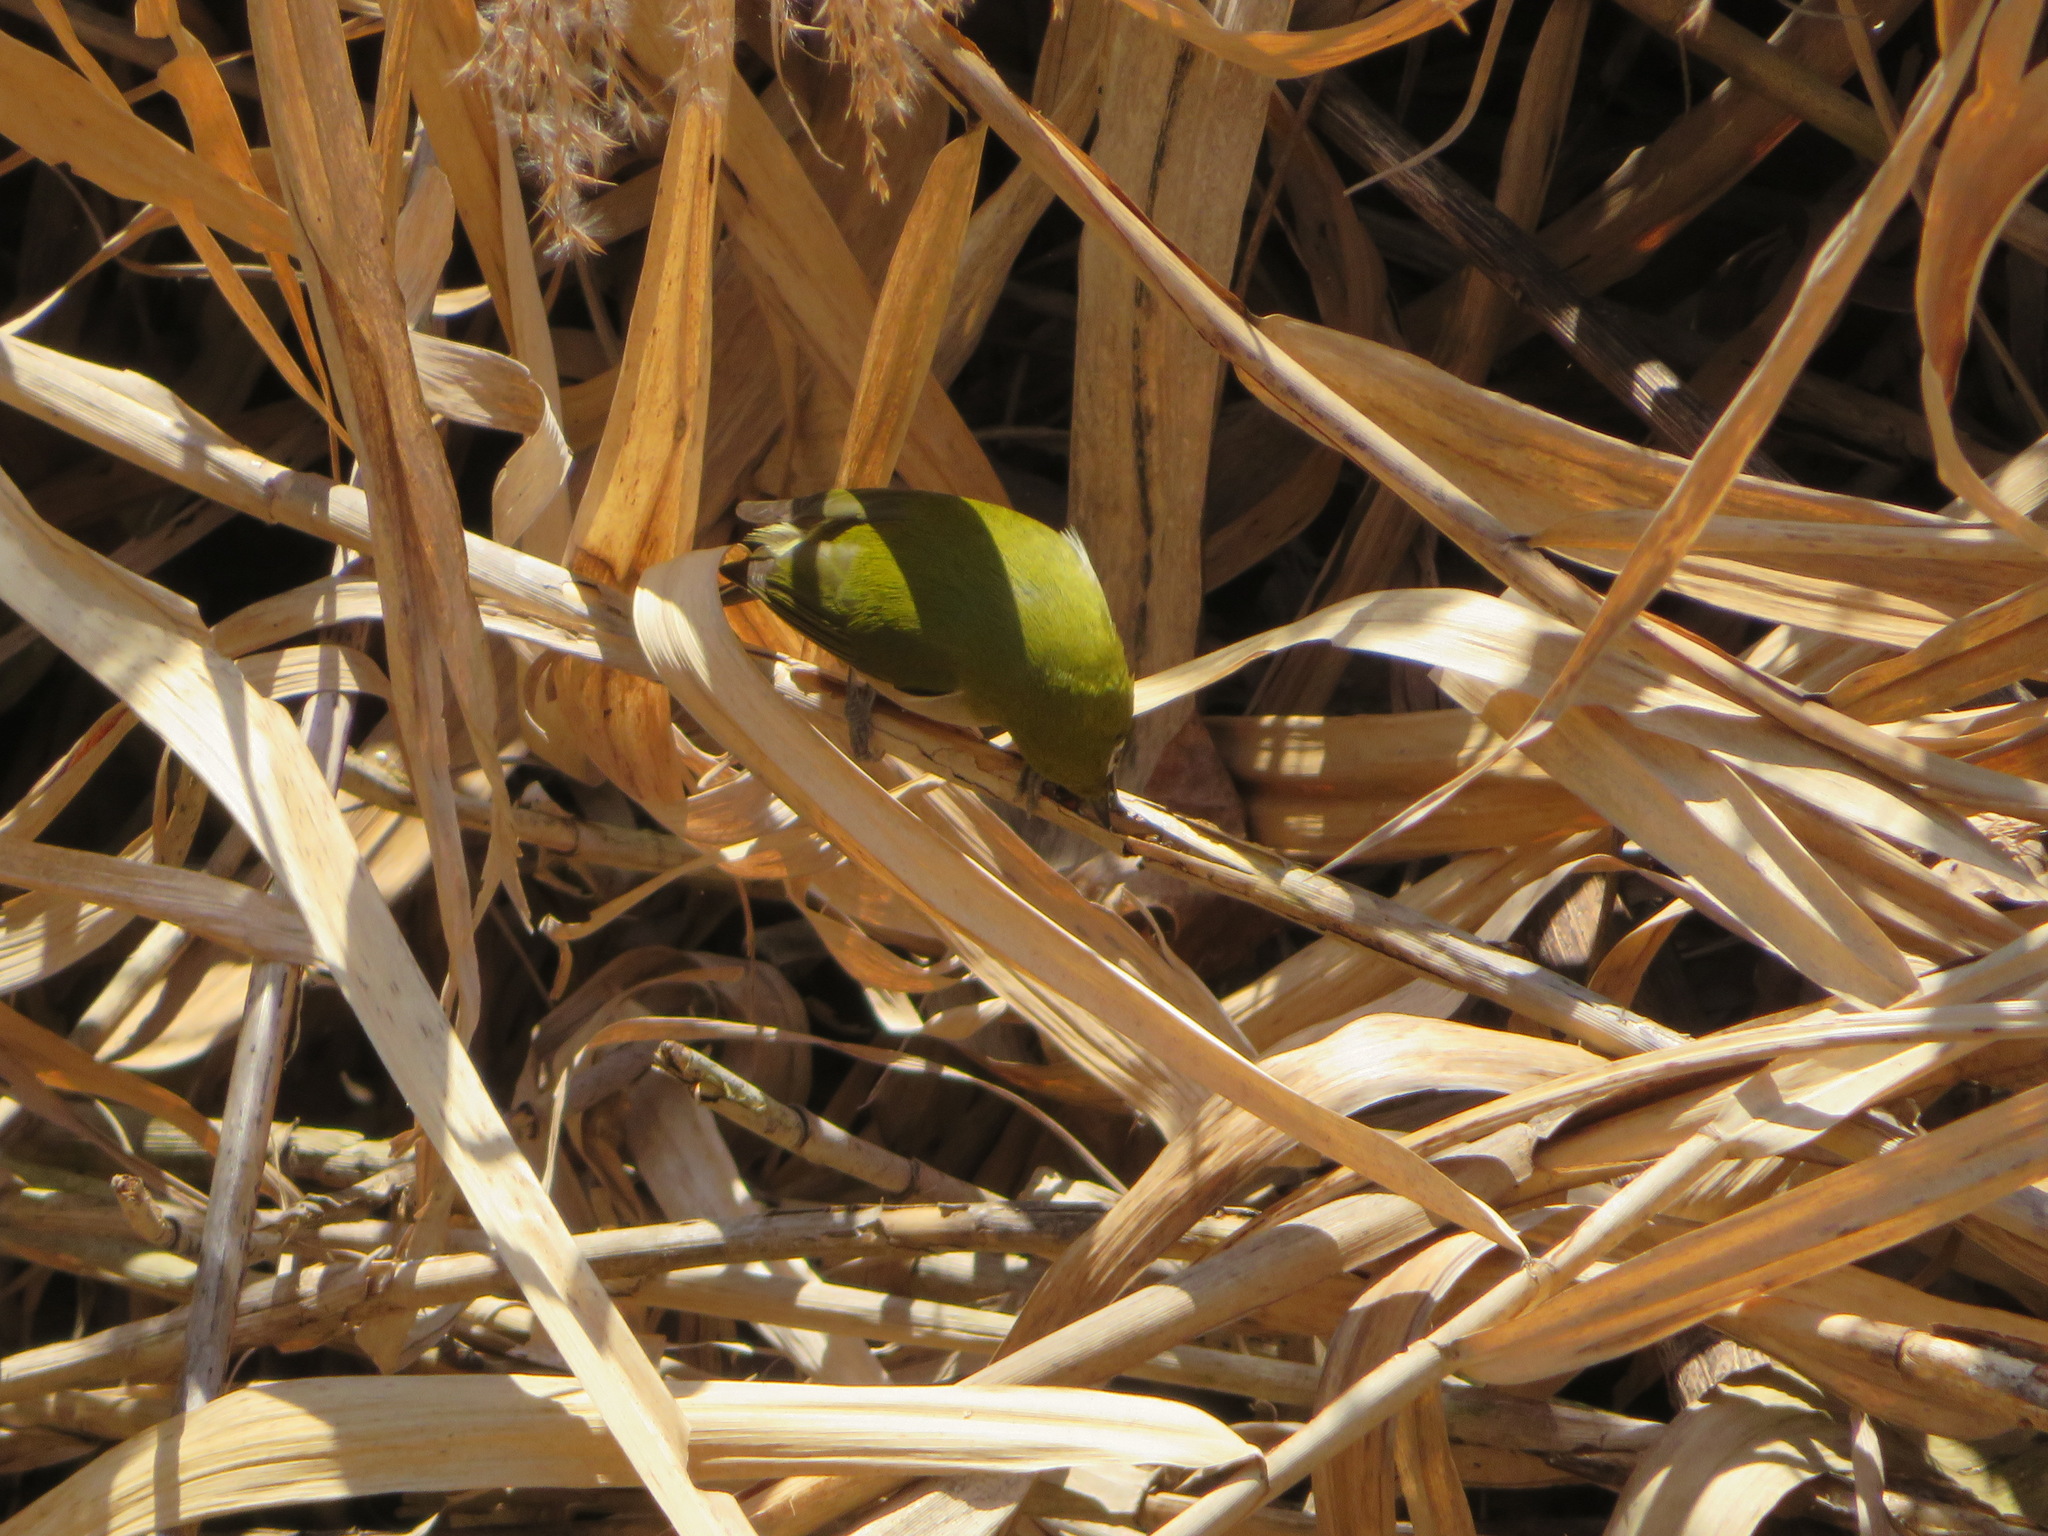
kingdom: Animalia
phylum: Chordata
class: Aves
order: Passeriformes
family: Zosteropidae
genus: Zosterops
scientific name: Zosterops japonicus
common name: Japanese white-eye
